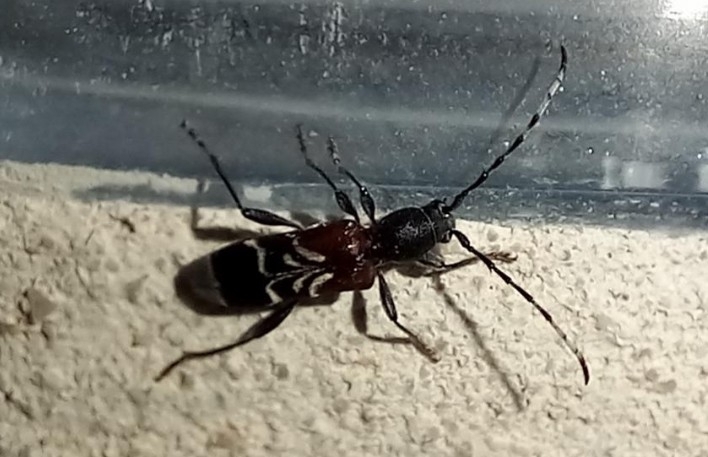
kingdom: Animalia
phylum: Arthropoda
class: Insecta
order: Coleoptera
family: Cerambycidae
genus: Anaglyptus
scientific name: Anaglyptus mysticus
